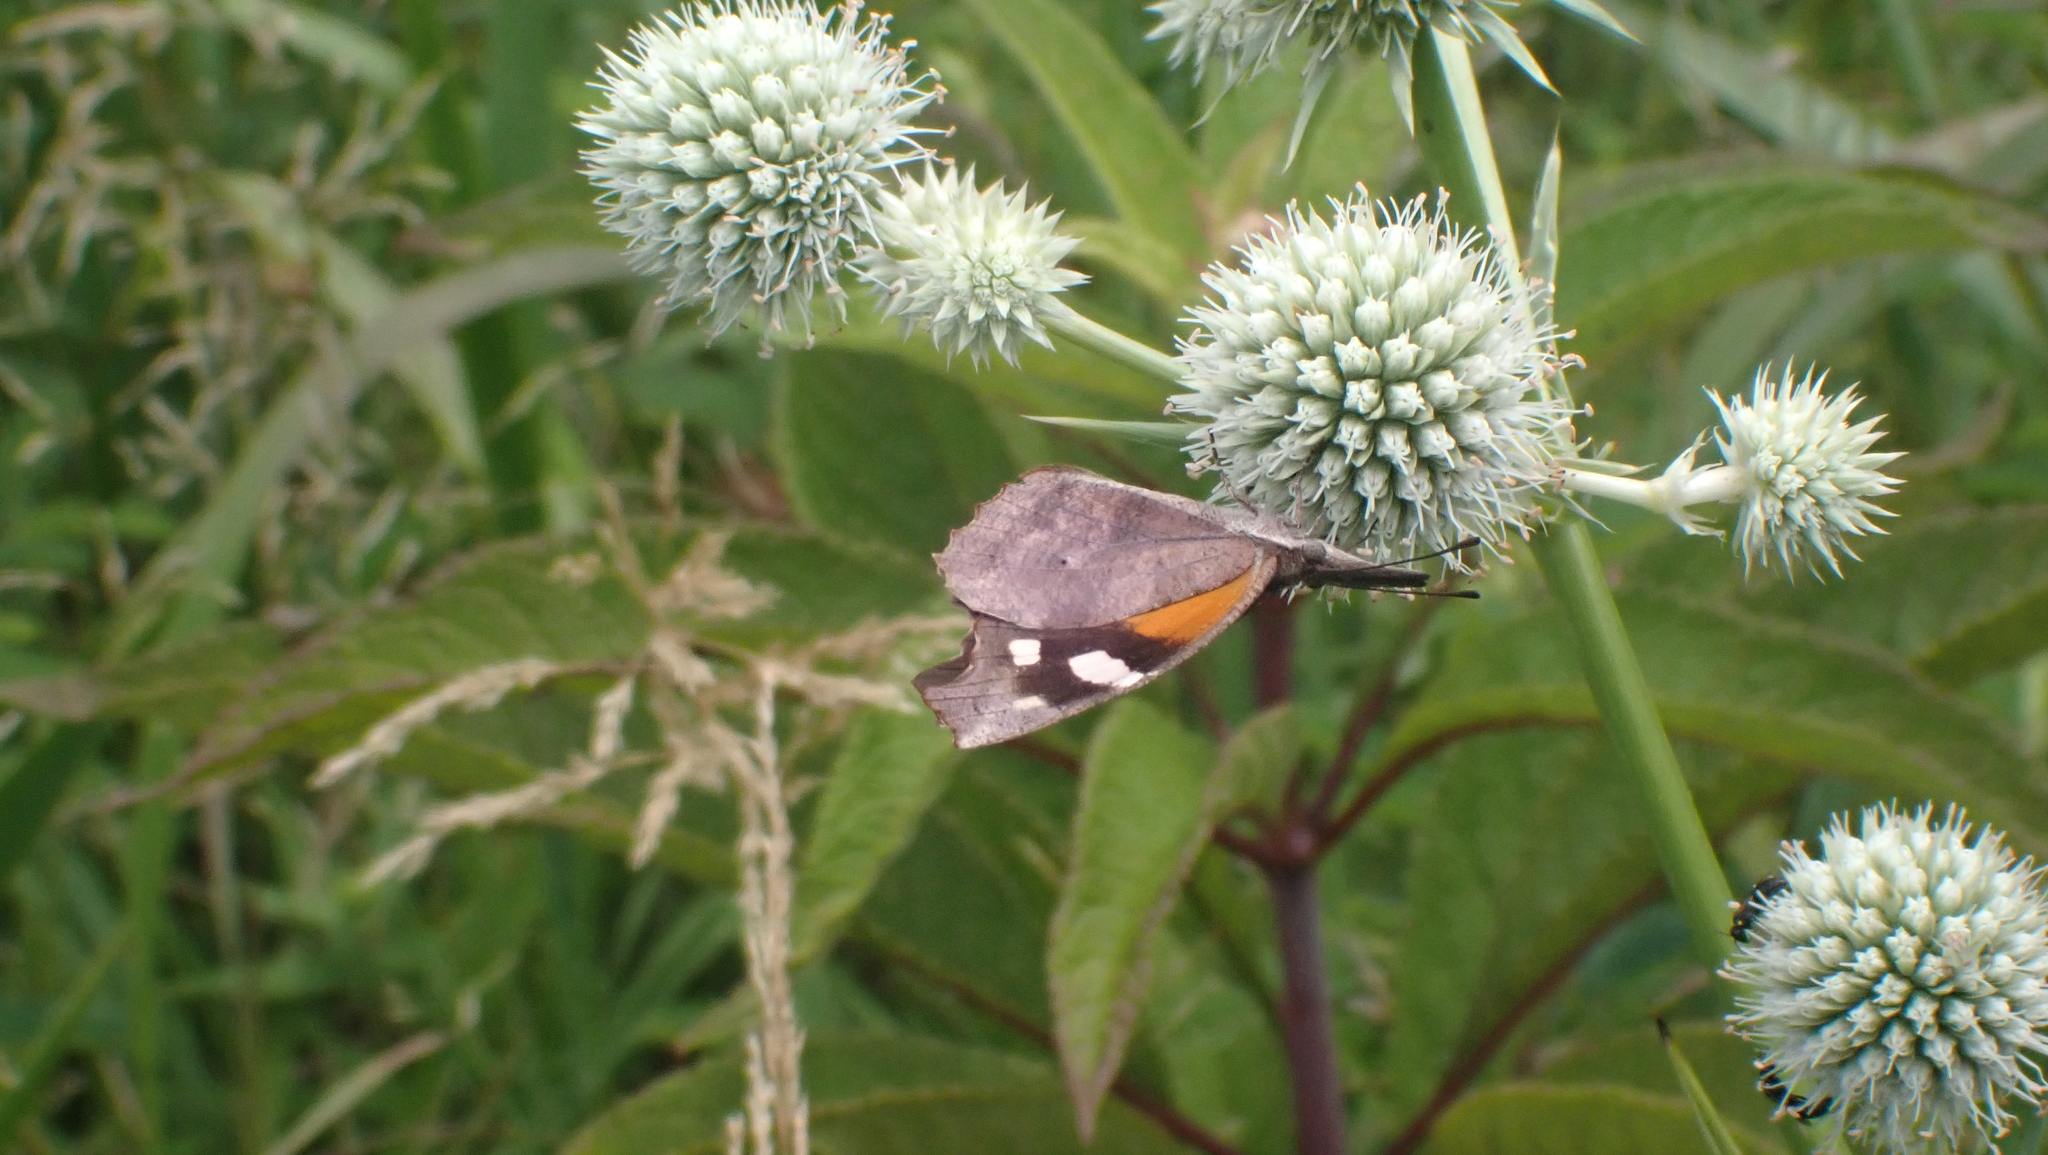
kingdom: Animalia
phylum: Arthropoda
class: Insecta
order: Lepidoptera
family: Nymphalidae
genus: Libytheana
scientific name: Libytheana carinenta
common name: American snout
